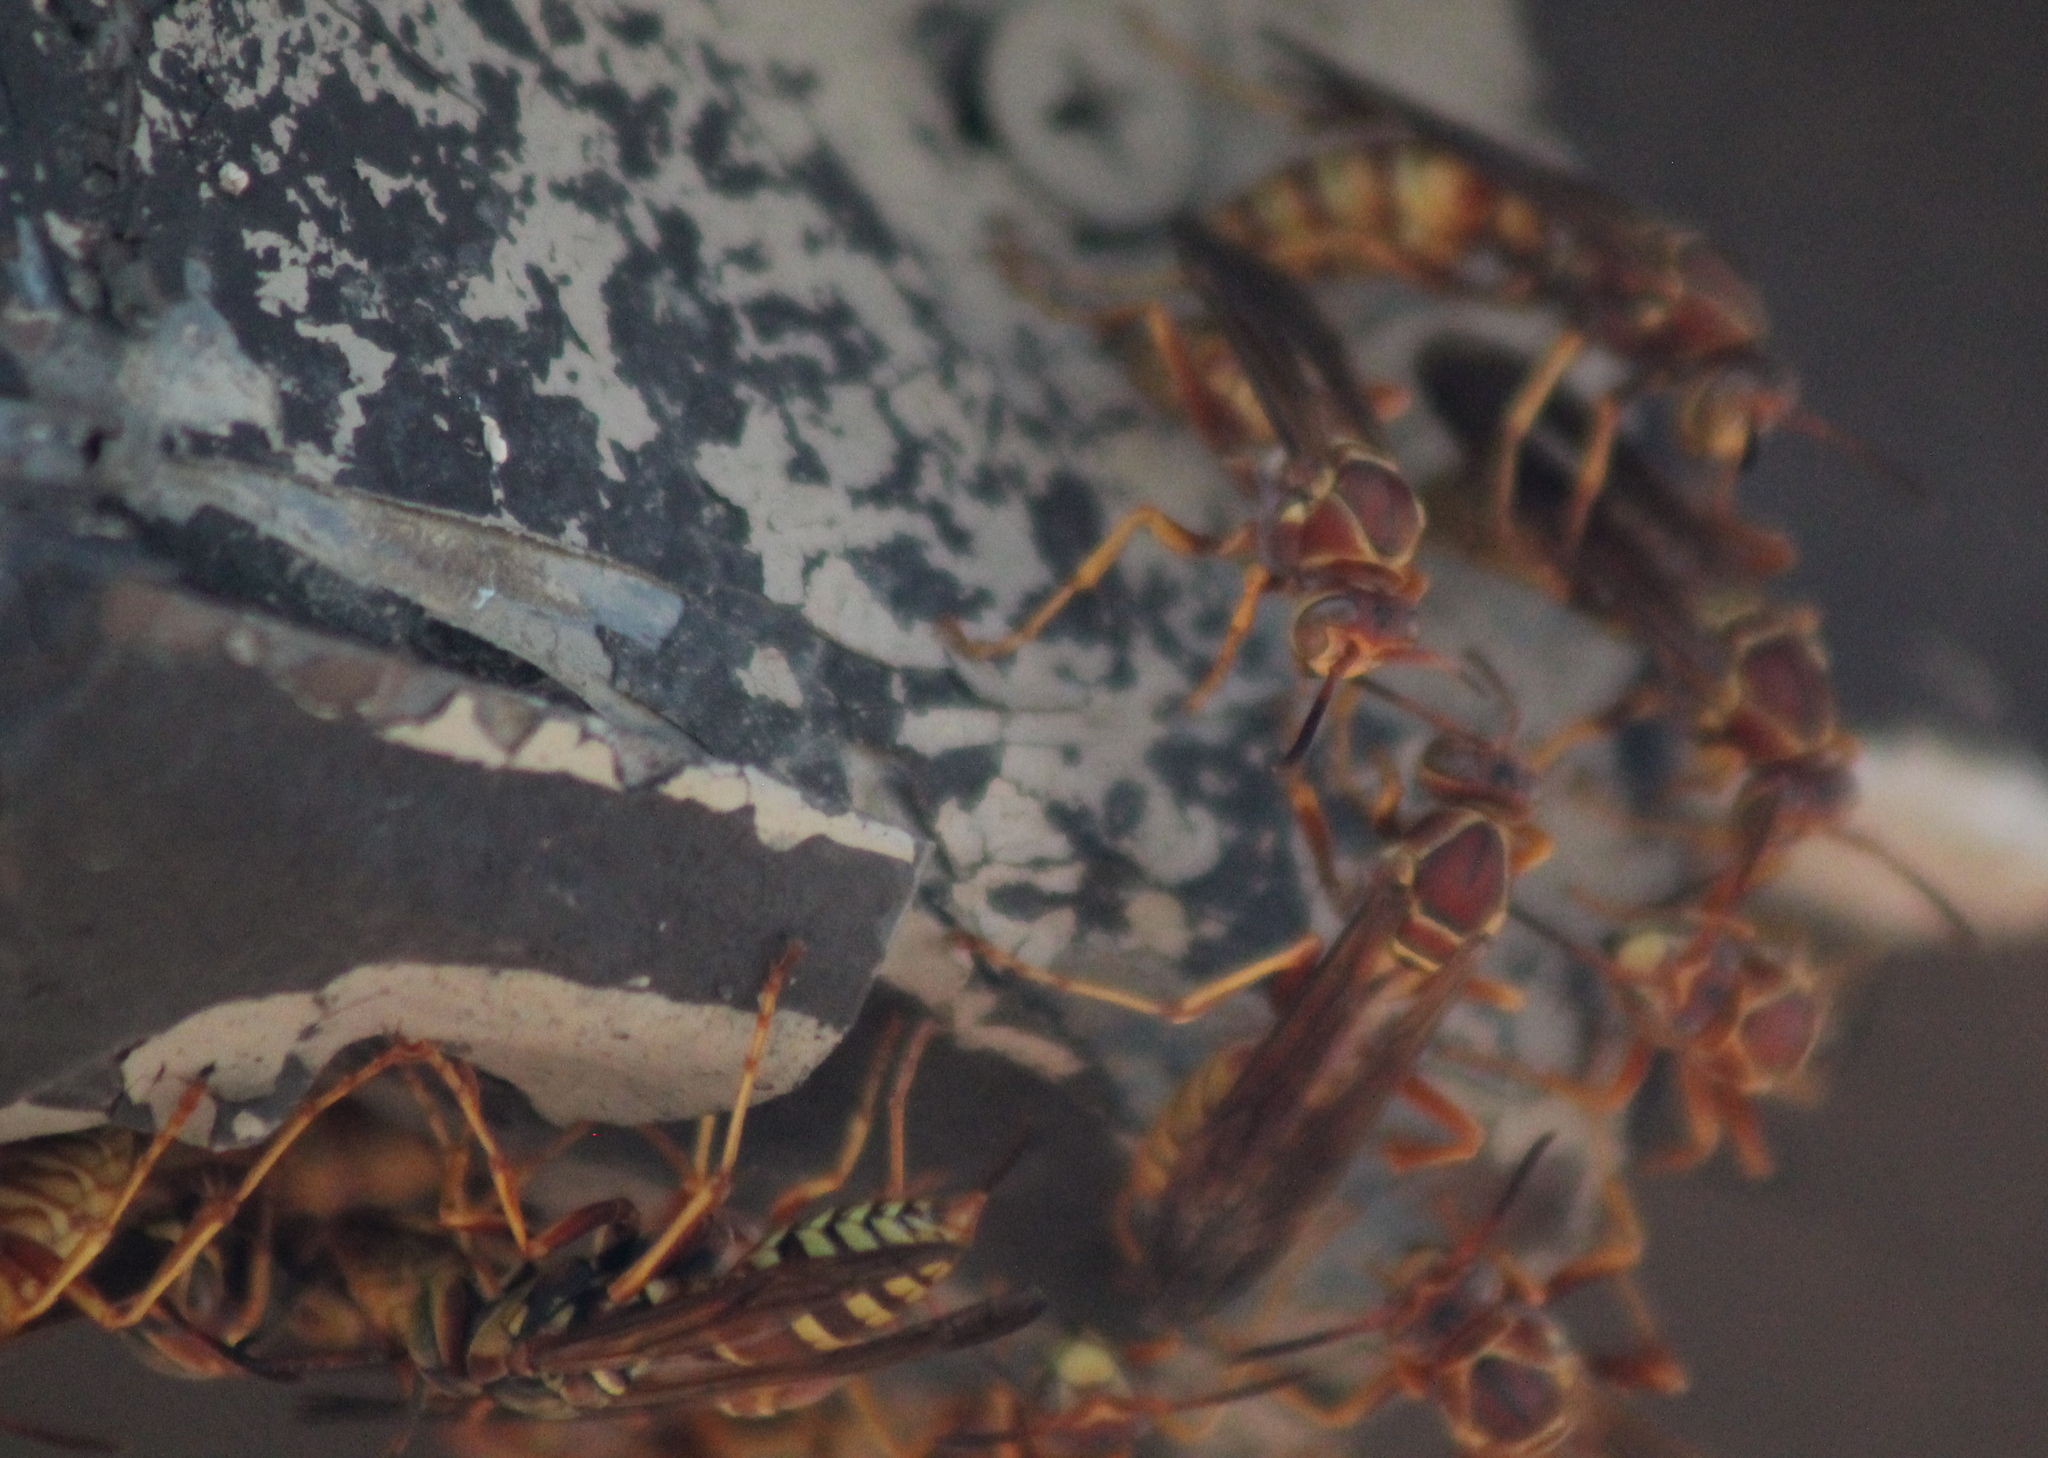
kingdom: Animalia
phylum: Arthropoda
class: Insecta
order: Hymenoptera
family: Eumenidae
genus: Polistes
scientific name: Polistes aurifer
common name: Paper wasp
